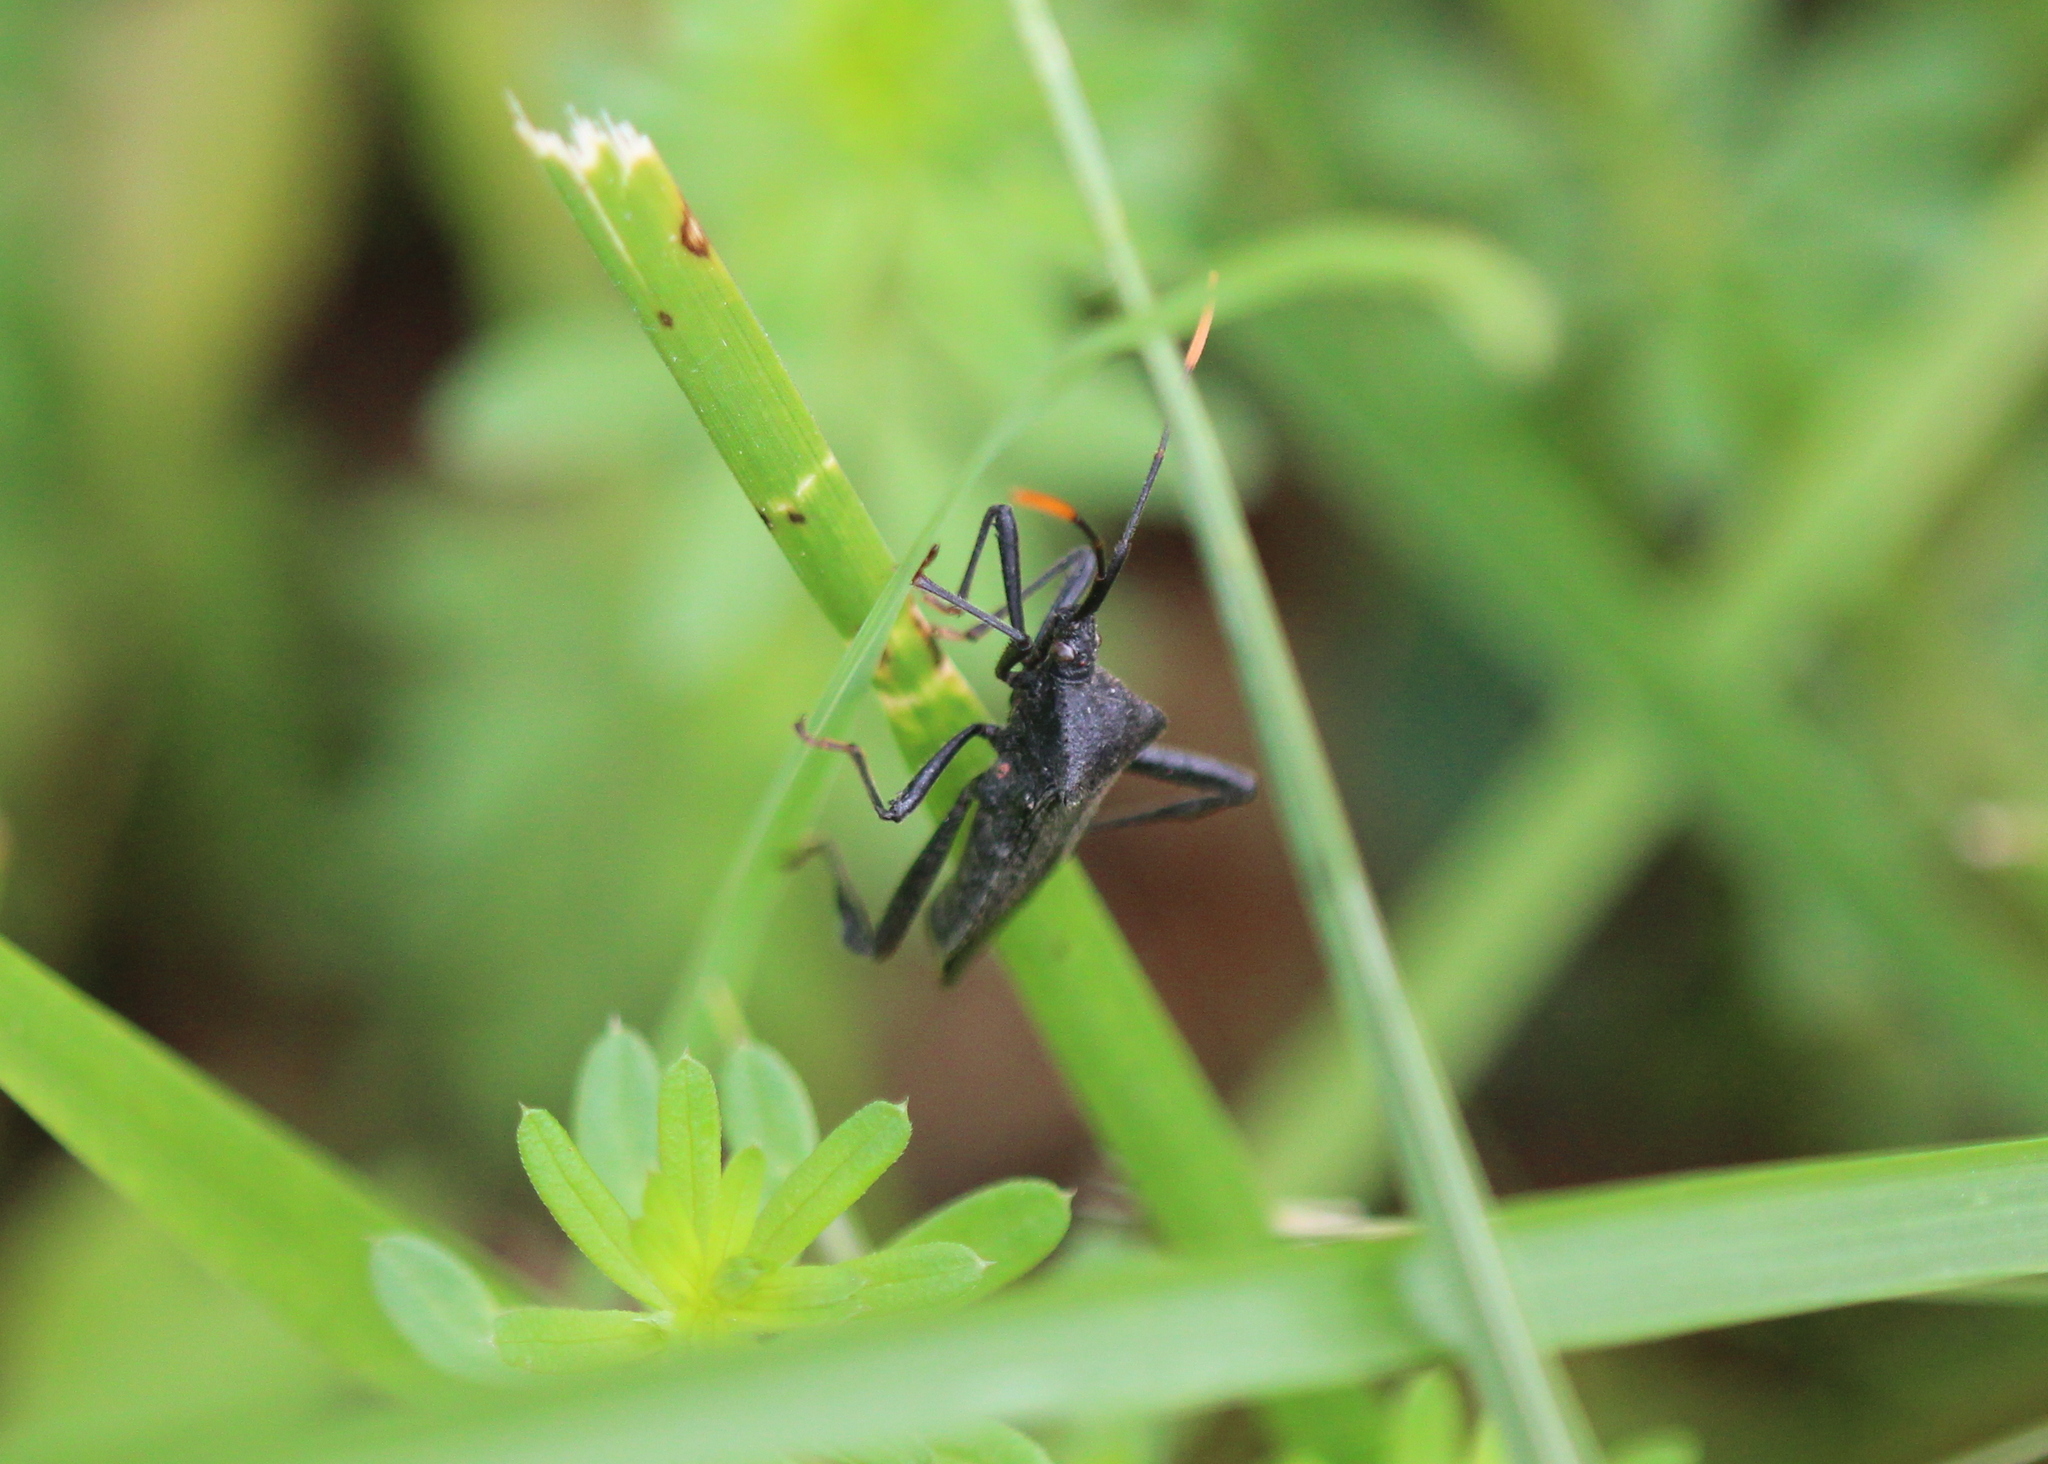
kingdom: Animalia
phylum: Arthropoda
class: Insecta
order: Hemiptera
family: Coreidae
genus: Acanthocephala
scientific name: Acanthocephala terminalis
